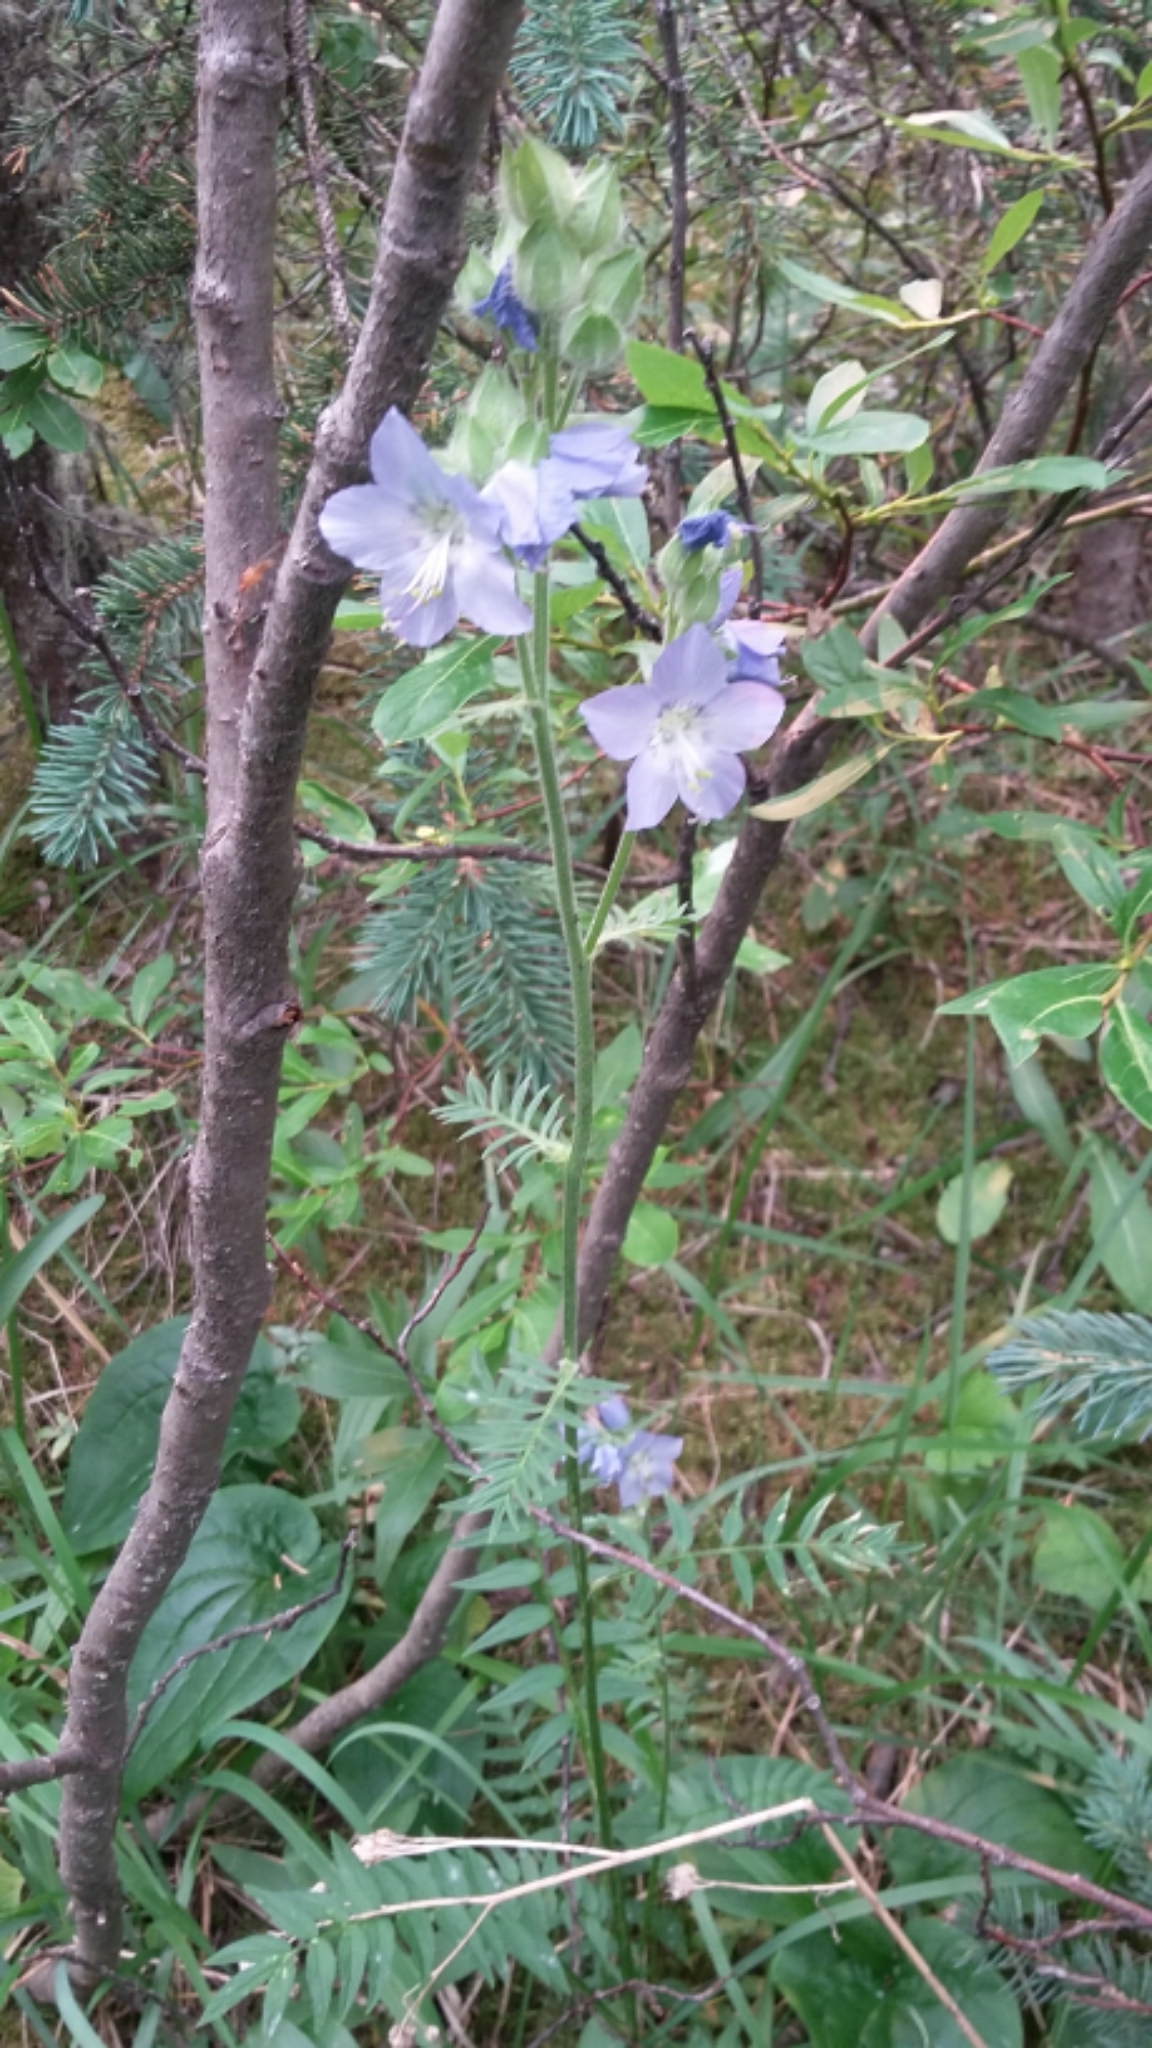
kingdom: Plantae
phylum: Tracheophyta
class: Magnoliopsida
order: Ericales
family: Polemoniaceae
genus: Polemonium
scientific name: Polemonium acutiflorum
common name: Tall jacob's-ladder
